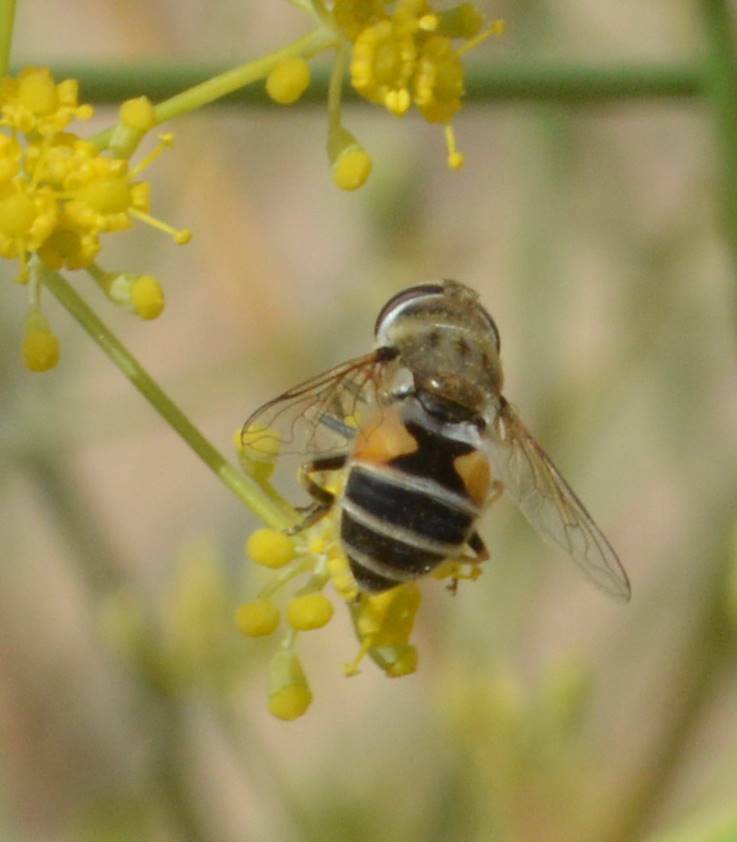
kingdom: Animalia
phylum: Arthropoda
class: Insecta
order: Diptera
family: Syrphidae
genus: Eristalis
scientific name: Eristalis arbustorum
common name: Hover fly
